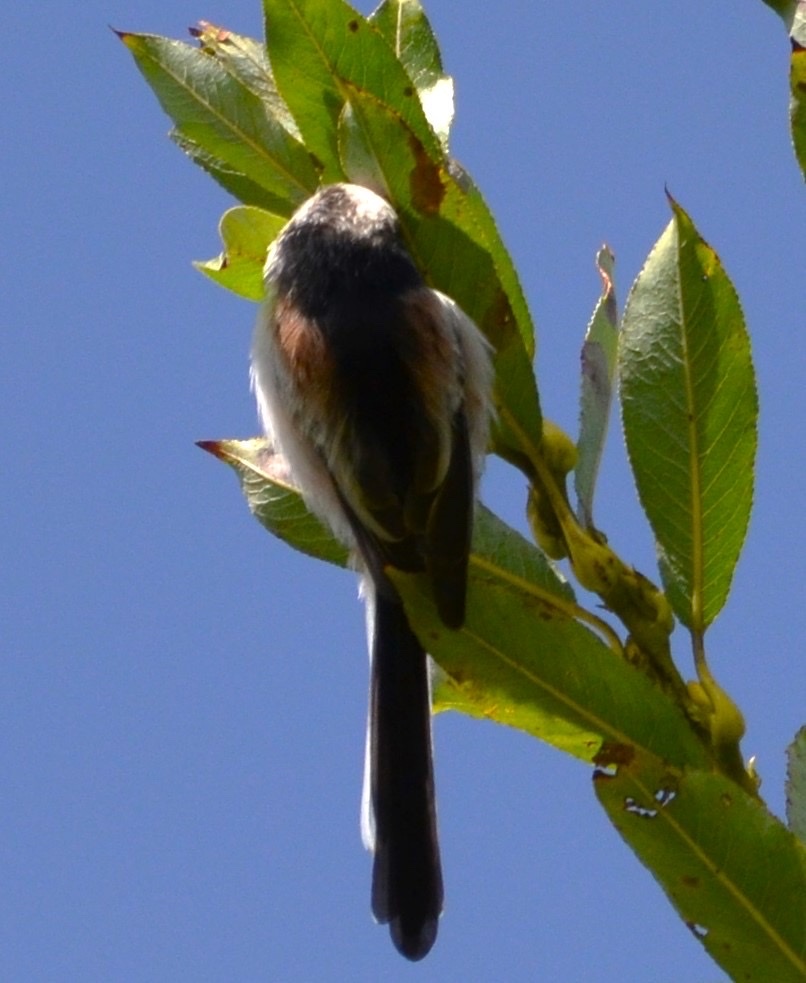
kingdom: Animalia
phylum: Chordata
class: Aves
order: Passeriformes
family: Aegithalidae
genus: Aegithalos
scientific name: Aegithalos caudatus
